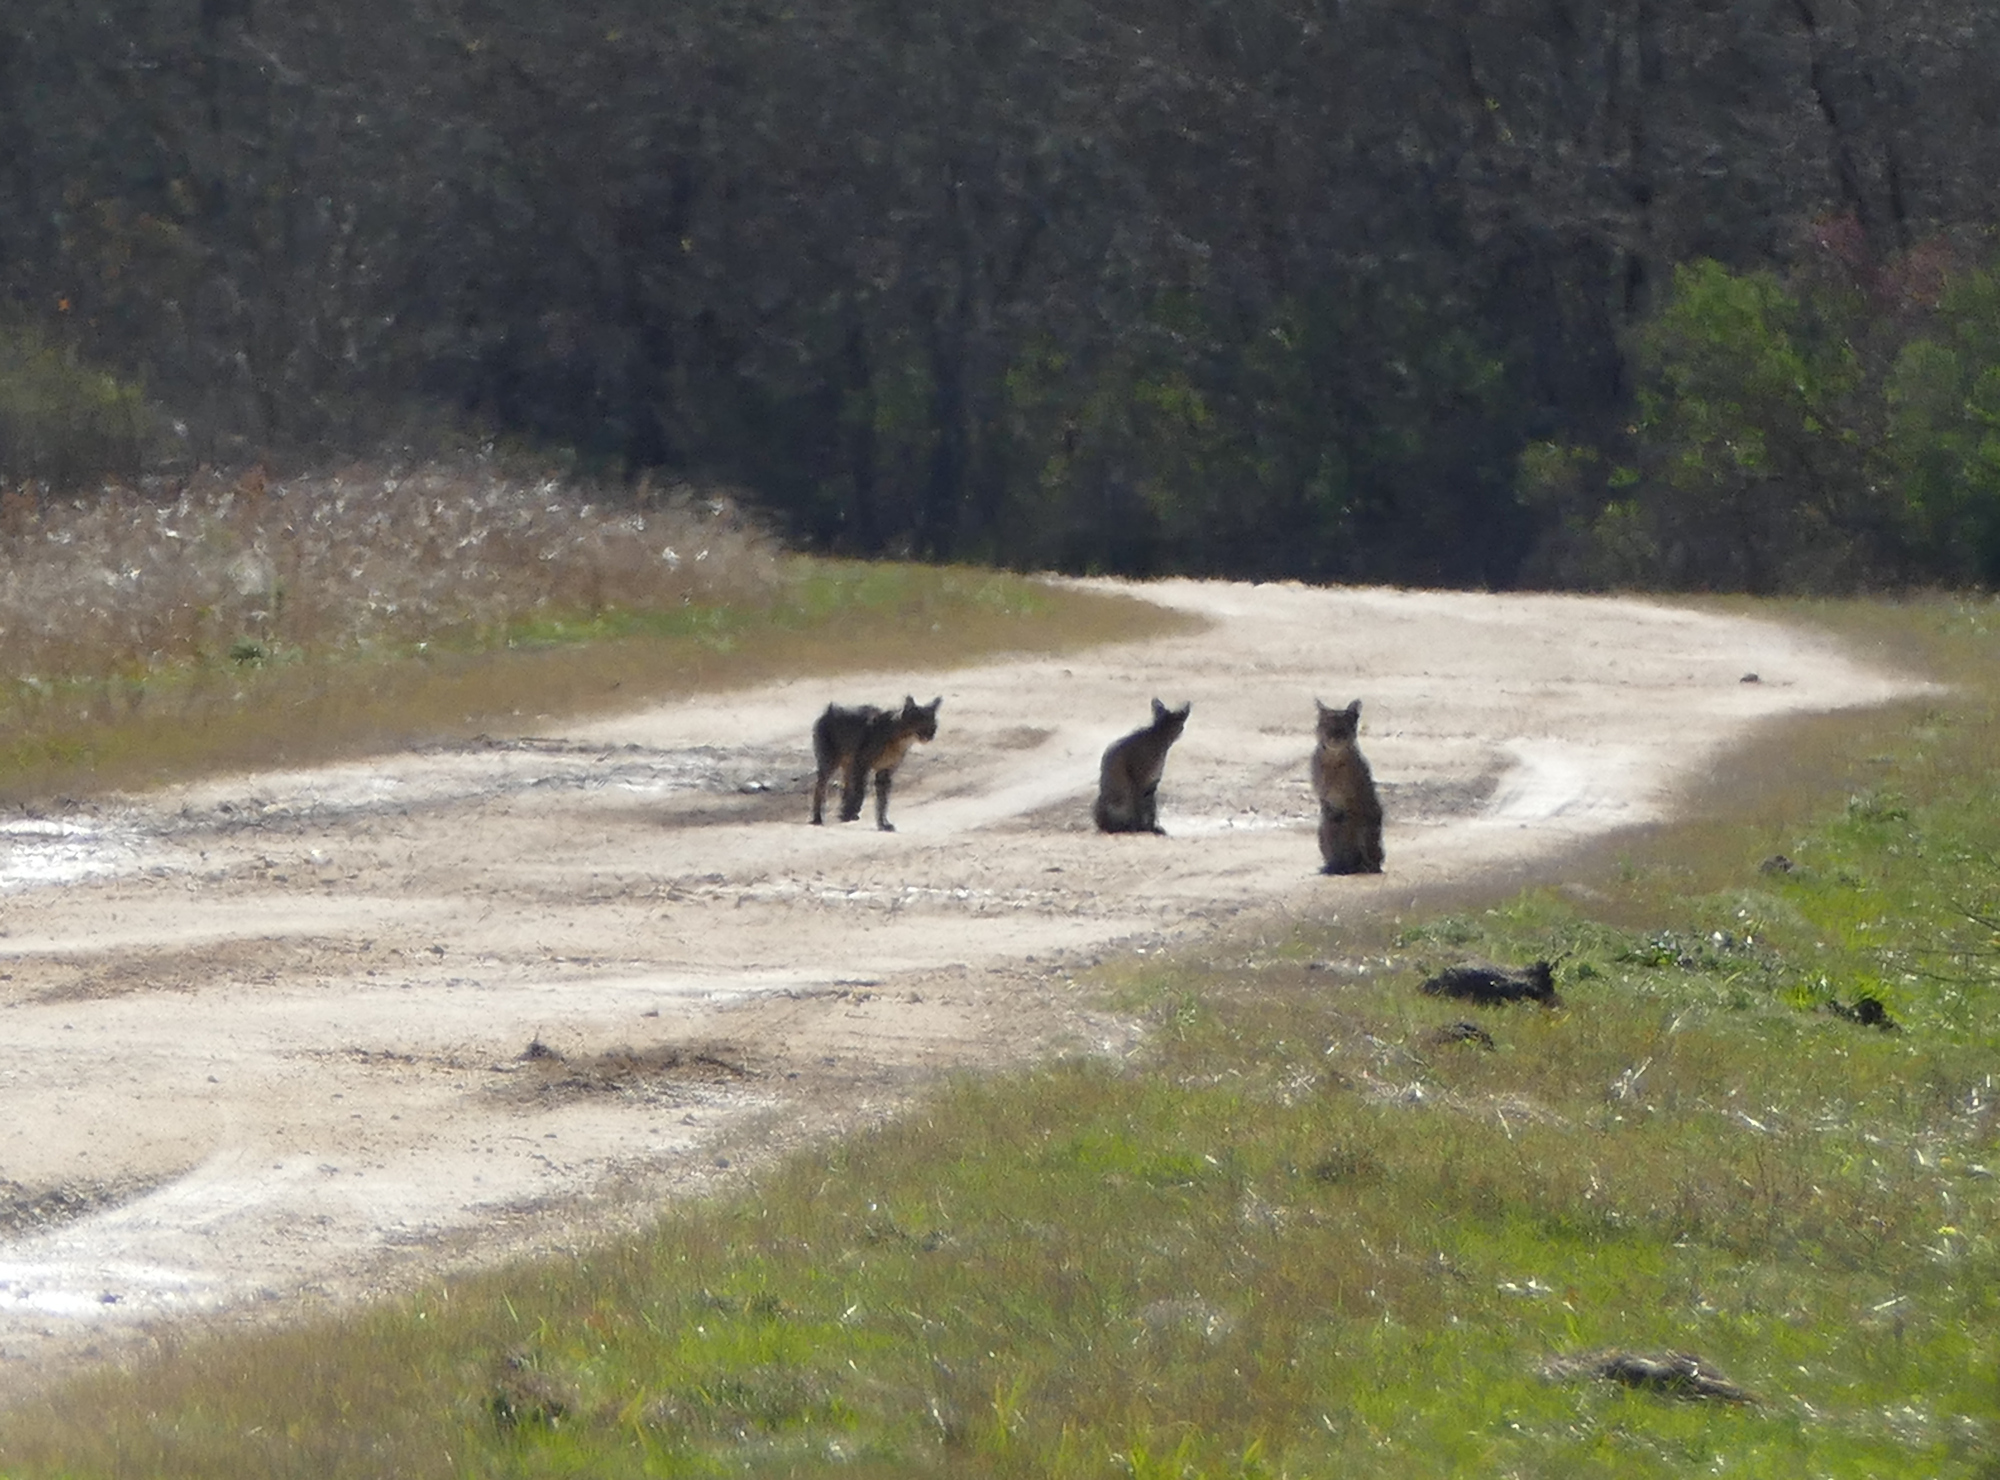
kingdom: Animalia
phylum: Chordata
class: Mammalia
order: Carnivora
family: Felidae
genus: Lynx
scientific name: Lynx rufus
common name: Bobcat
